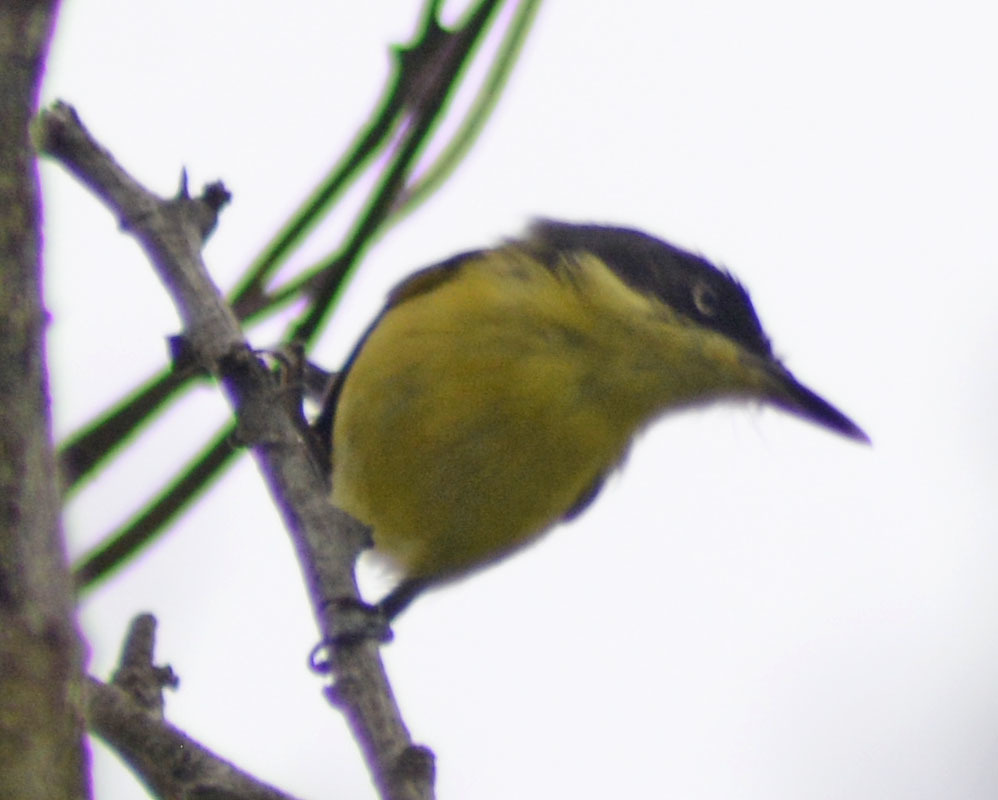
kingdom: Animalia
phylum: Chordata
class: Aves
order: Passeriformes
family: Tyrannidae
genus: Todirostrum
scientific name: Todirostrum cinereum
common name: Common tody-flycatcher
